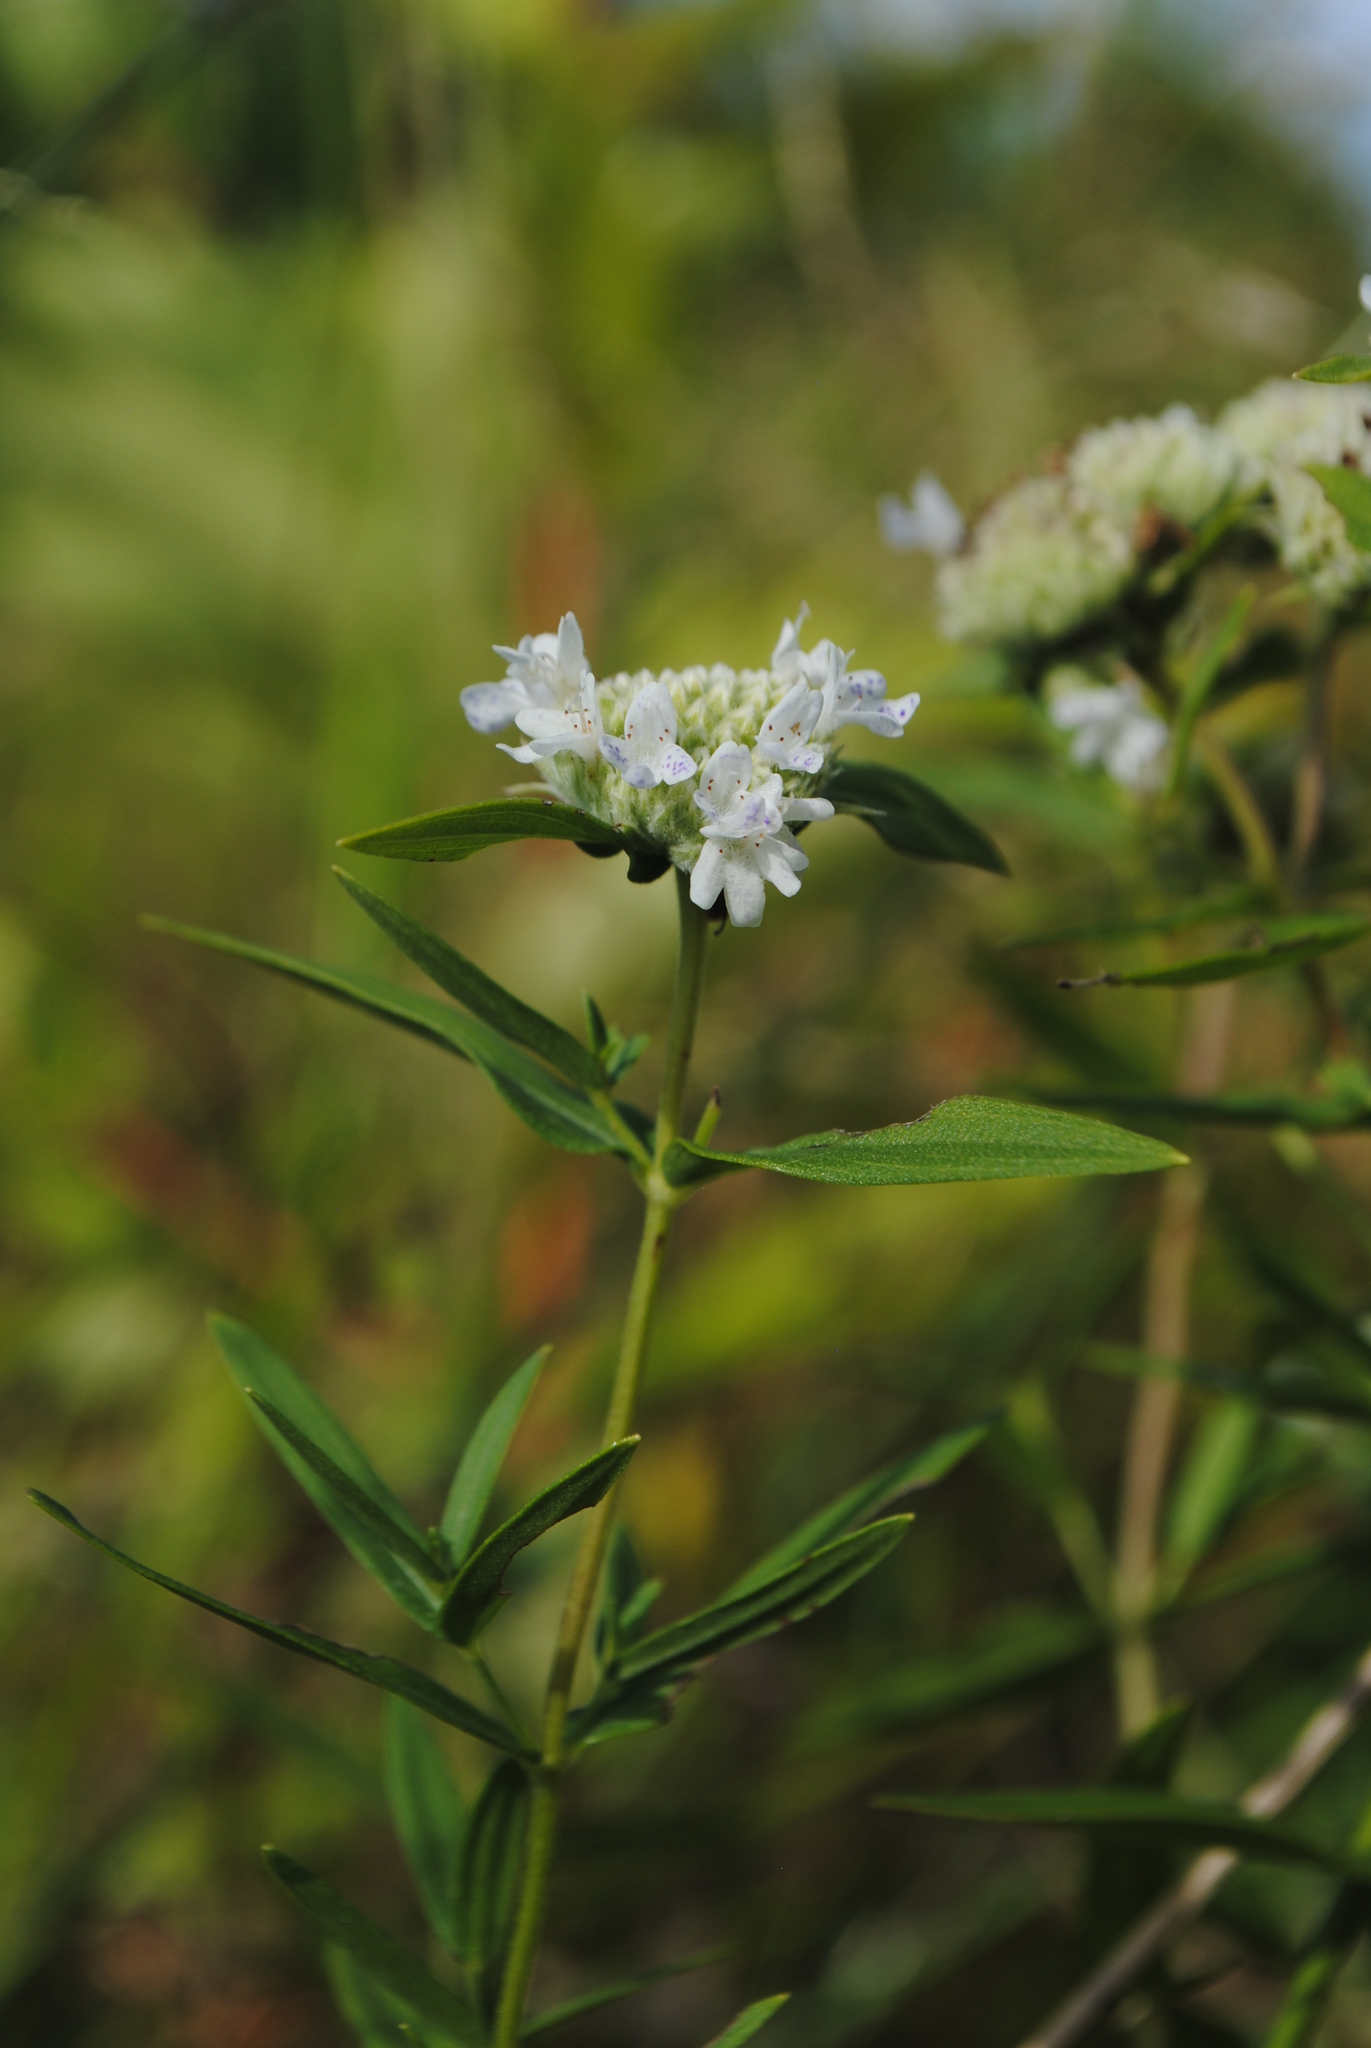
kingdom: Plantae
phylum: Tracheophyta
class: Magnoliopsida
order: Lamiales
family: Lamiaceae
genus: Pycnanthemum
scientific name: Pycnanthemum virginianum
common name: Virginia mountain-mint
